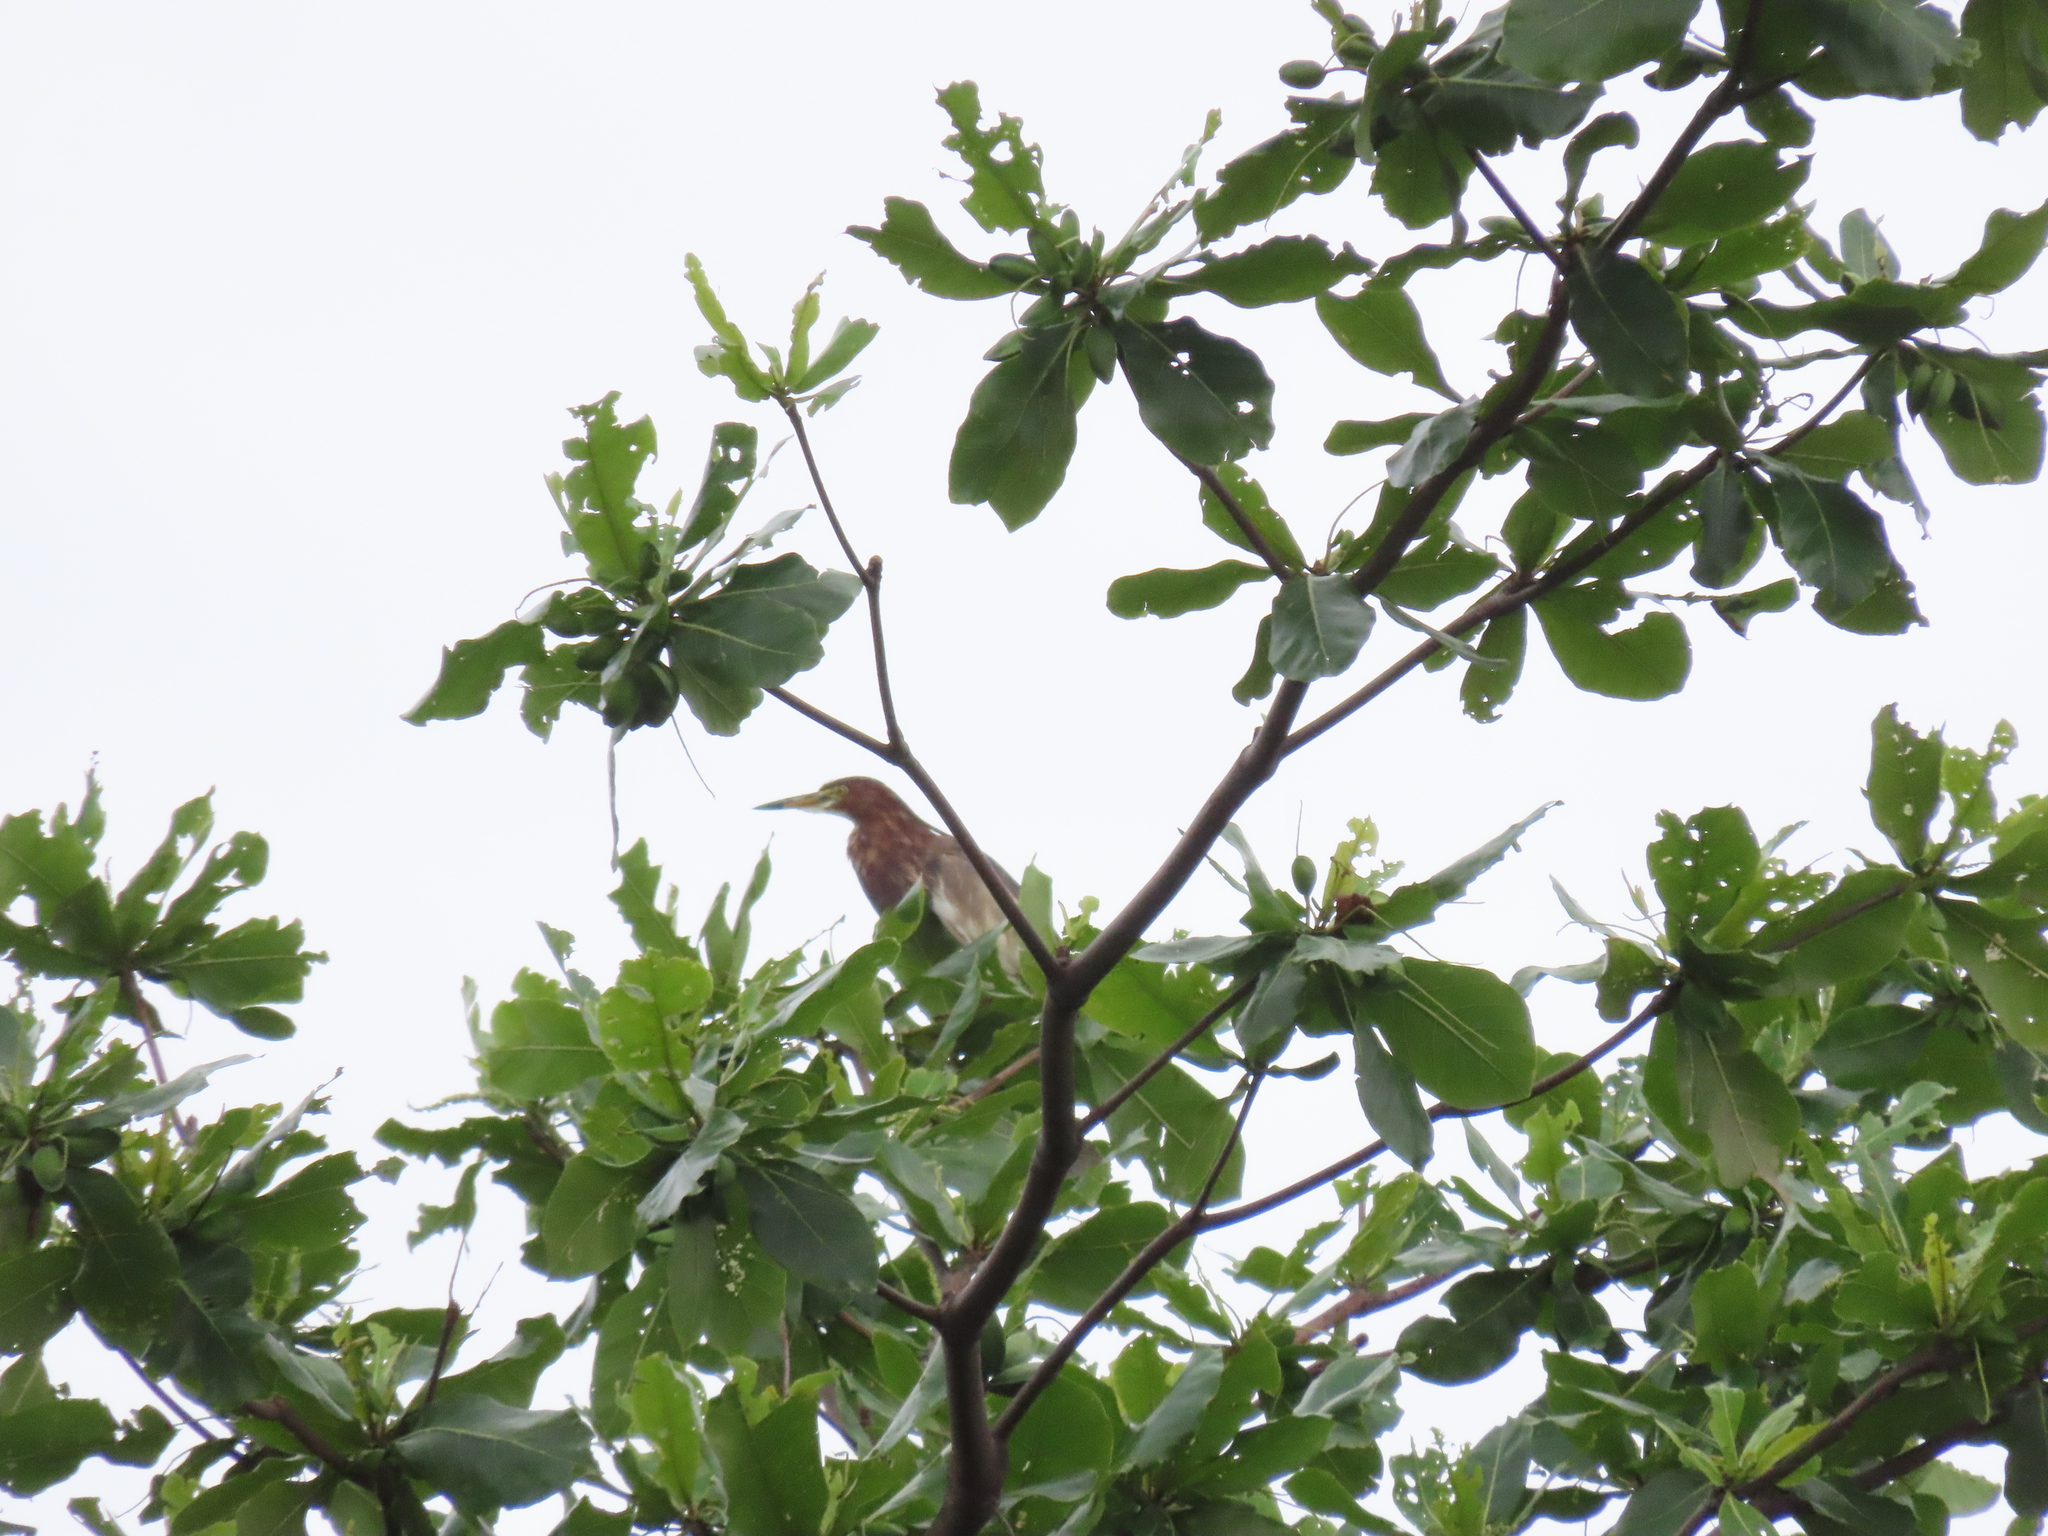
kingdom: Animalia
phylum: Chordata
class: Aves
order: Pelecaniformes
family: Ardeidae
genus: Ardeola
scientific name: Ardeola bacchus
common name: Chinese pond heron
